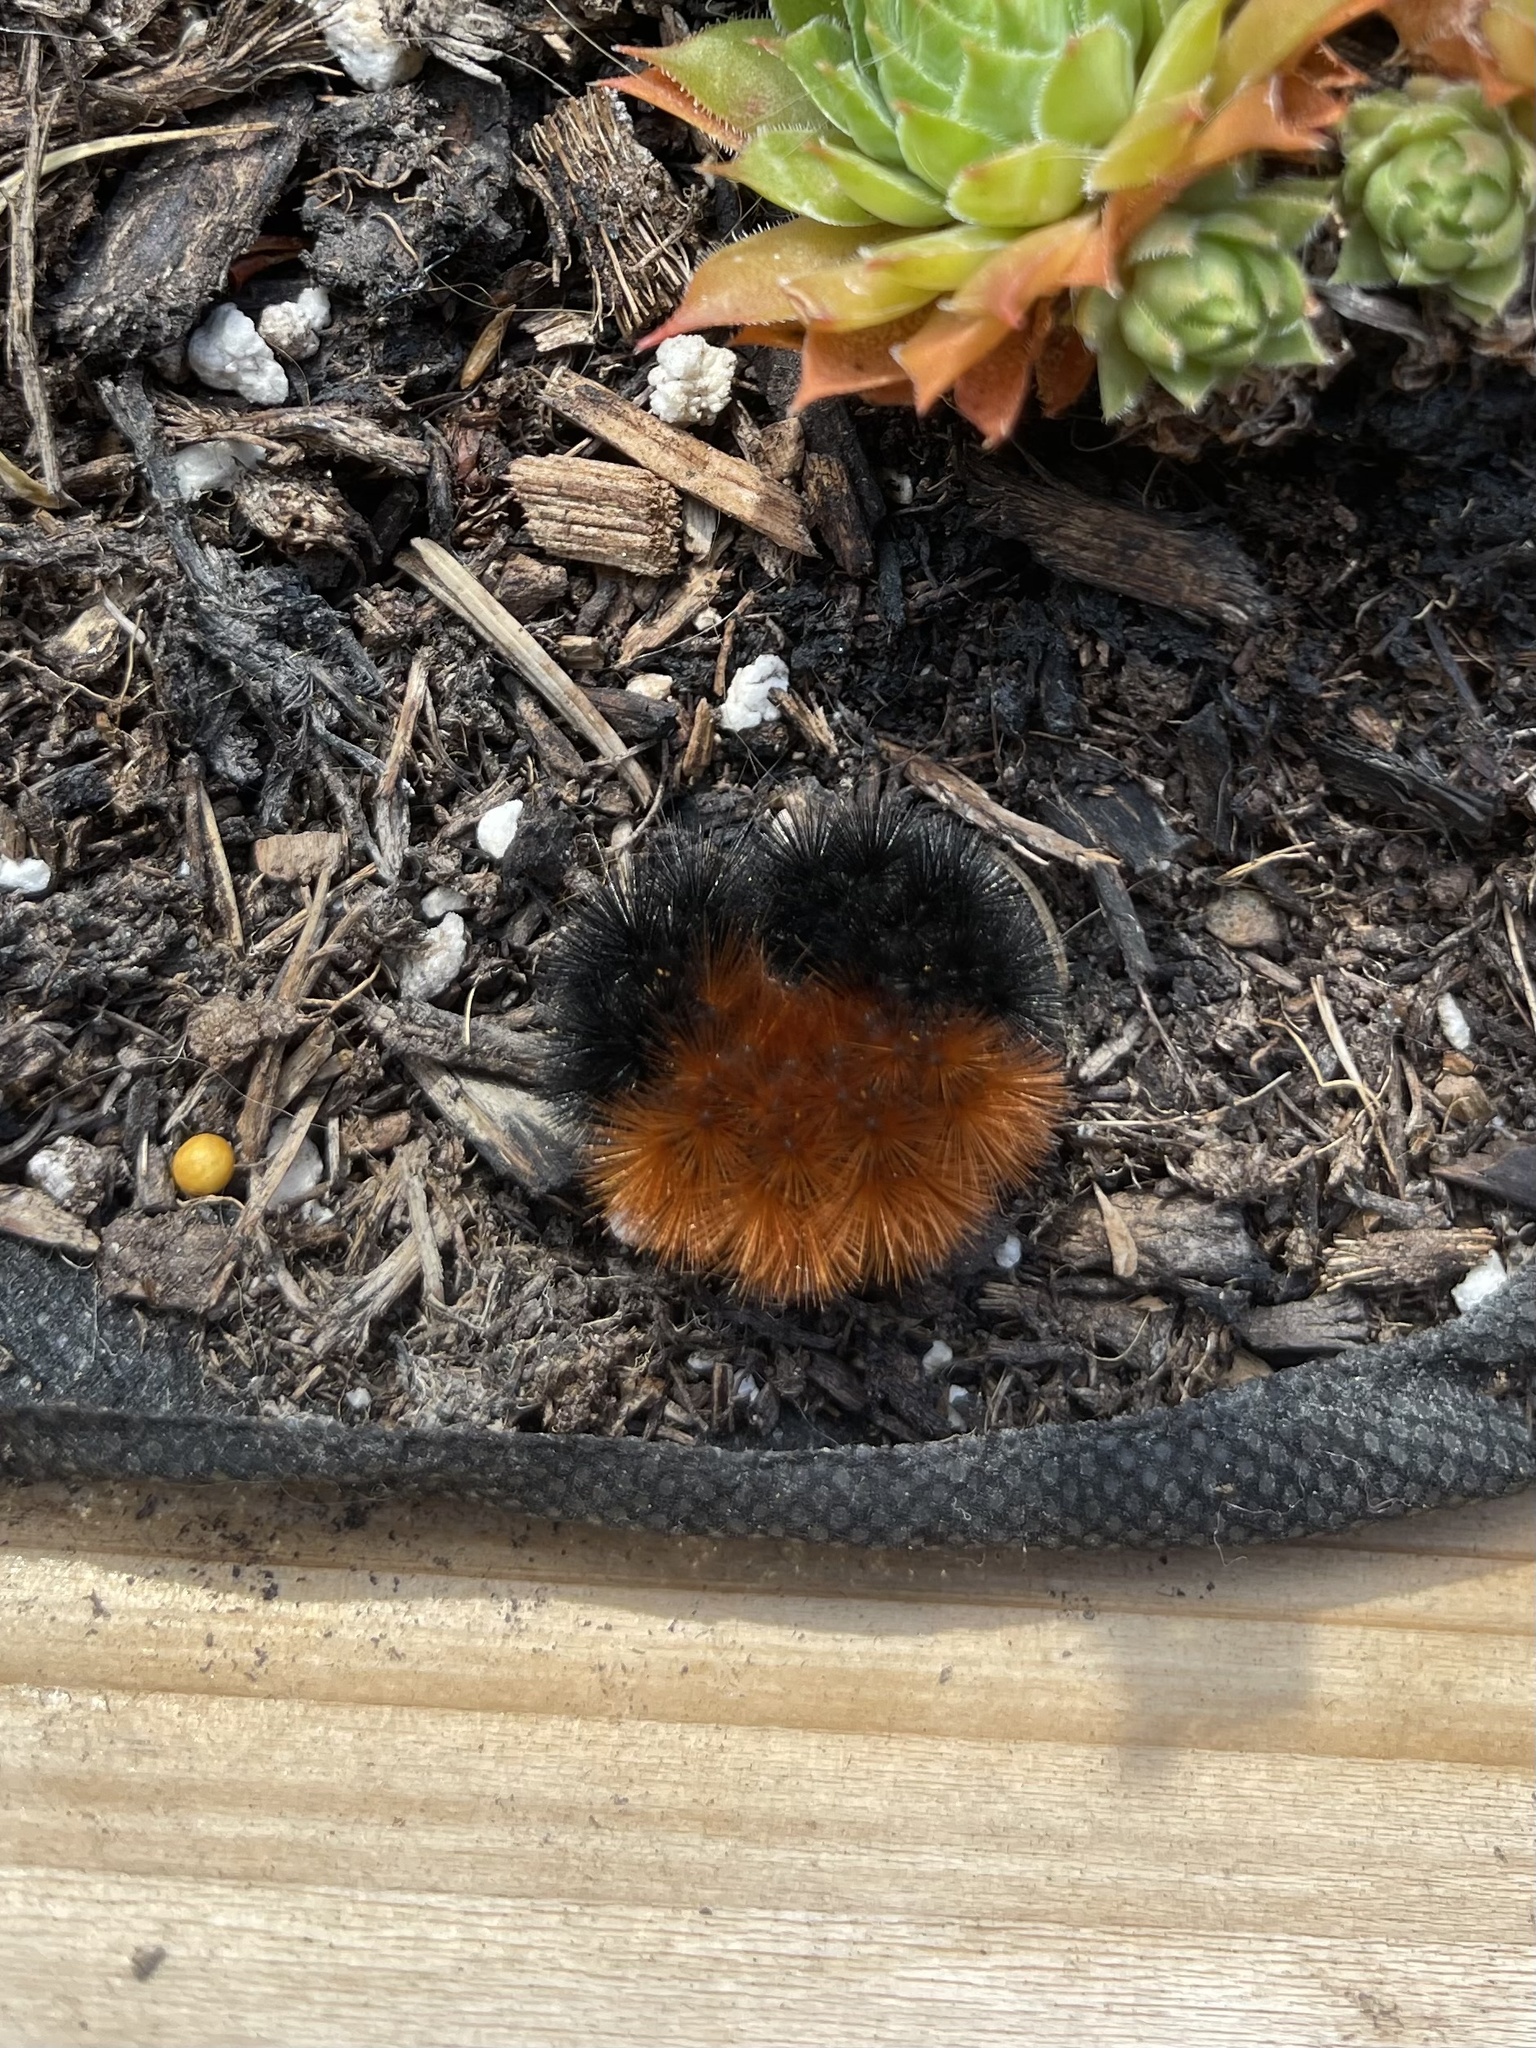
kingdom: Animalia
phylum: Arthropoda
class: Insecta
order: Lepidoptera
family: Erebidae
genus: Pyrrharctia
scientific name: Pyrrharctia isabella
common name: Isabella tiger moth
